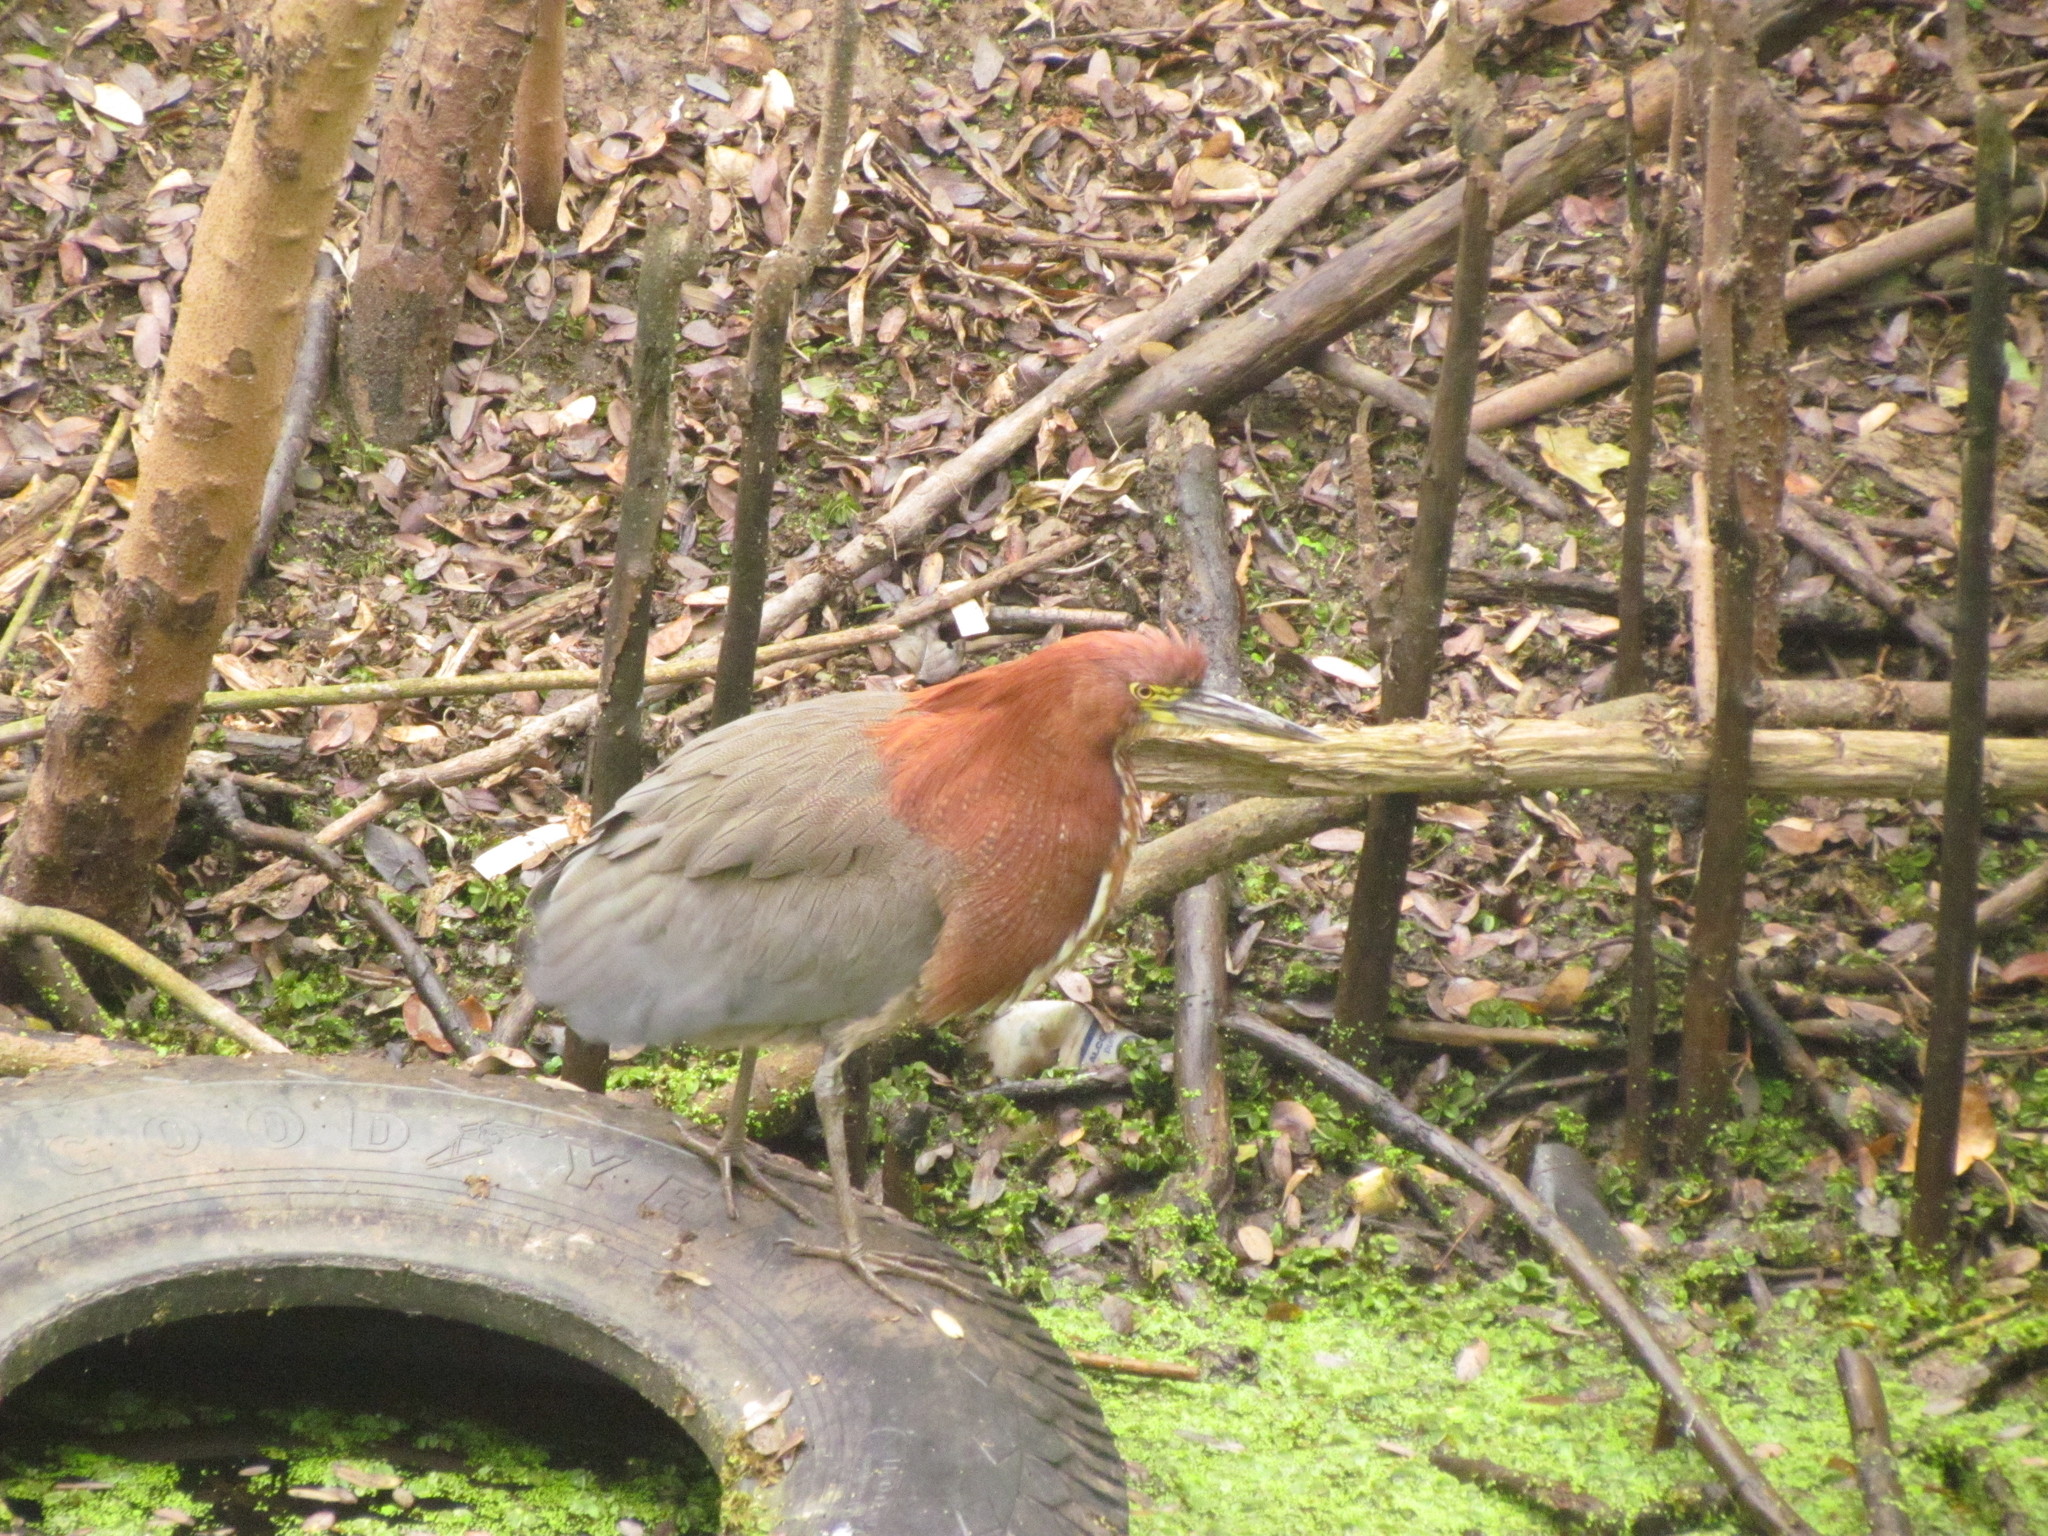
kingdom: Animalia
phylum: Chordata
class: Aves
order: Pelecaniformes
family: Ardeidae
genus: Tigrisoma
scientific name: Tigrisoma lineatum
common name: Rufescent tiger-heron
